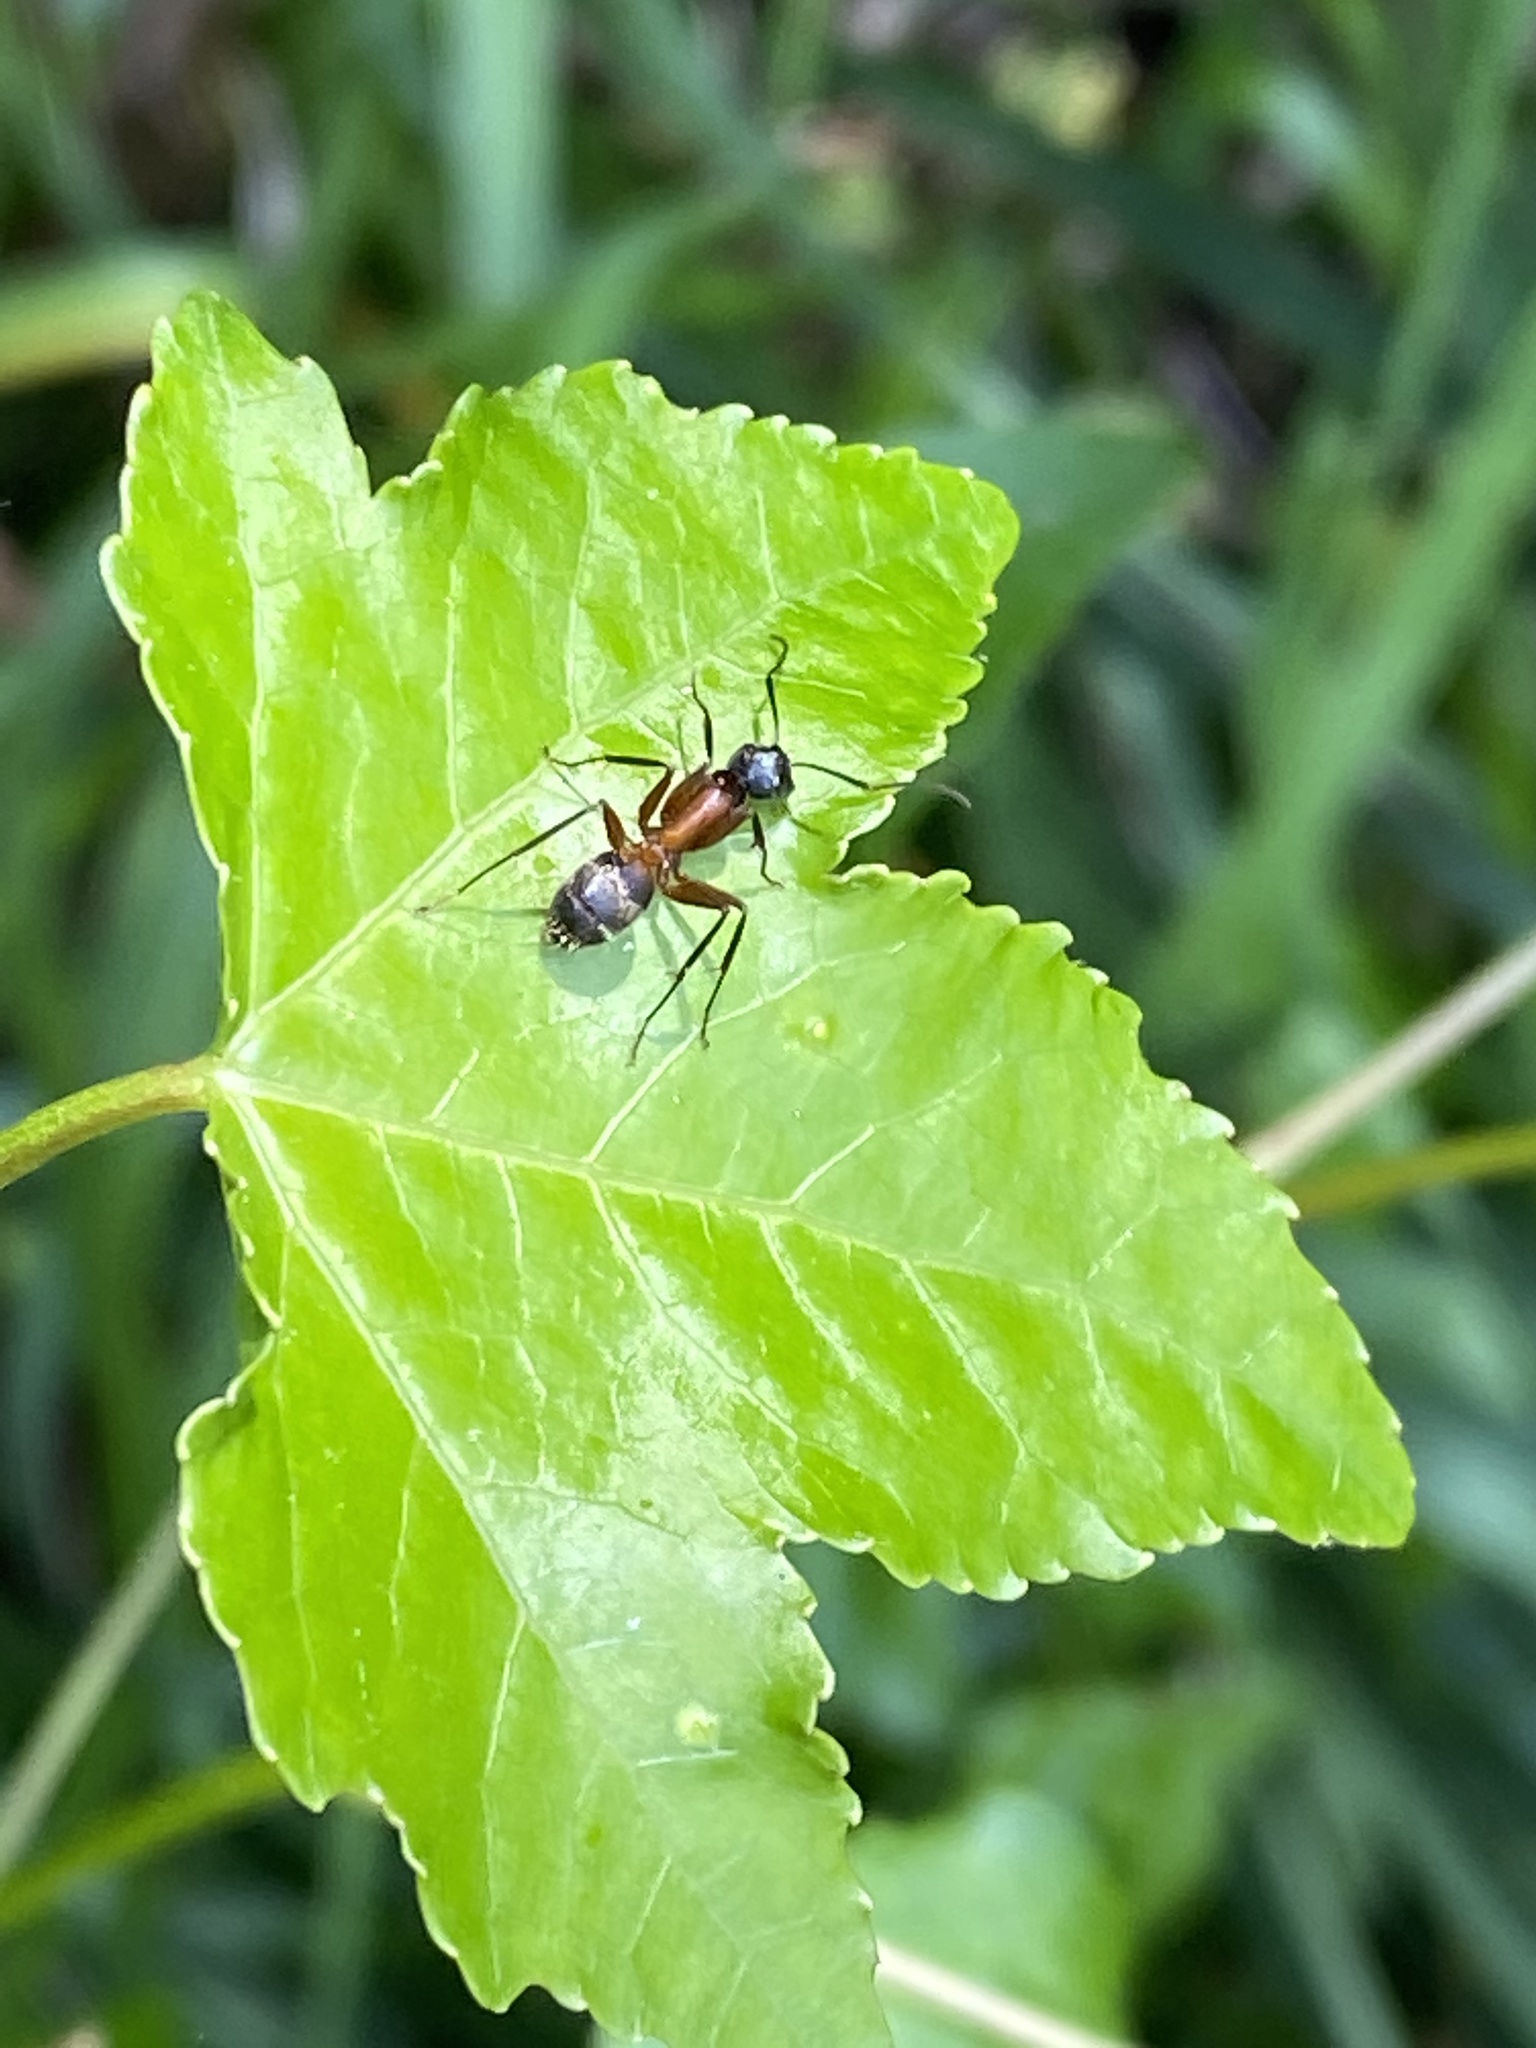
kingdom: Animalia
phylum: Arthropoda
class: Insecta
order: Hymenoptera
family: Formicidae
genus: Camponotus
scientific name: Camponotus chromaiodes
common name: Red carpenter ant
